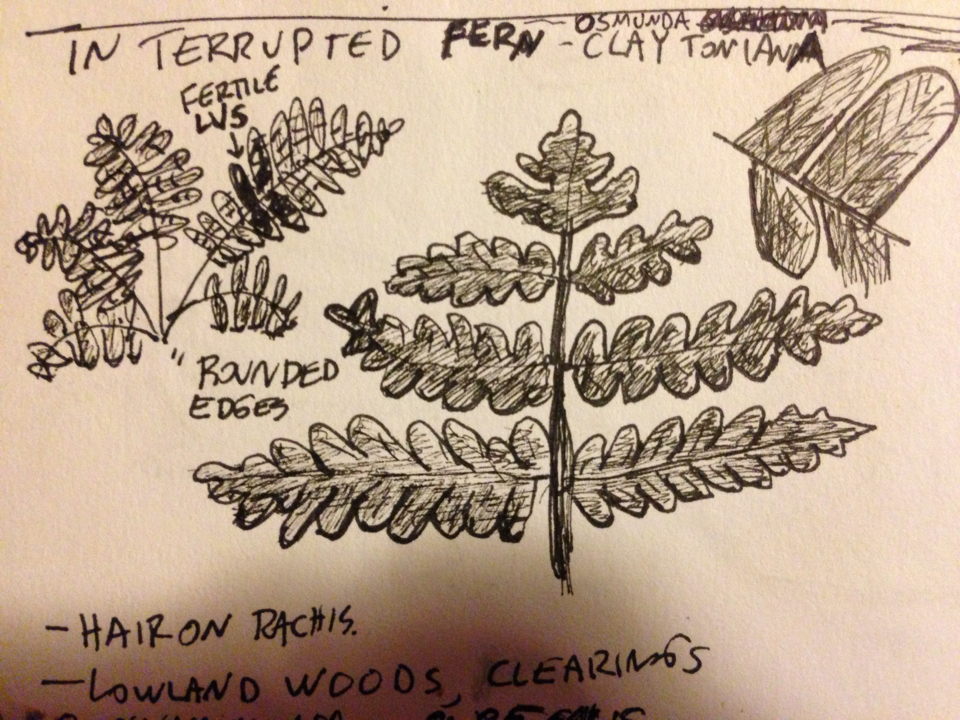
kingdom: Plantae
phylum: Tracheophyta
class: Polypodiopsida
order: Osmundales
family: Osmundaceae
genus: Claytosmunda
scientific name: Claytosmunda claytoniana
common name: Clayton's fern
